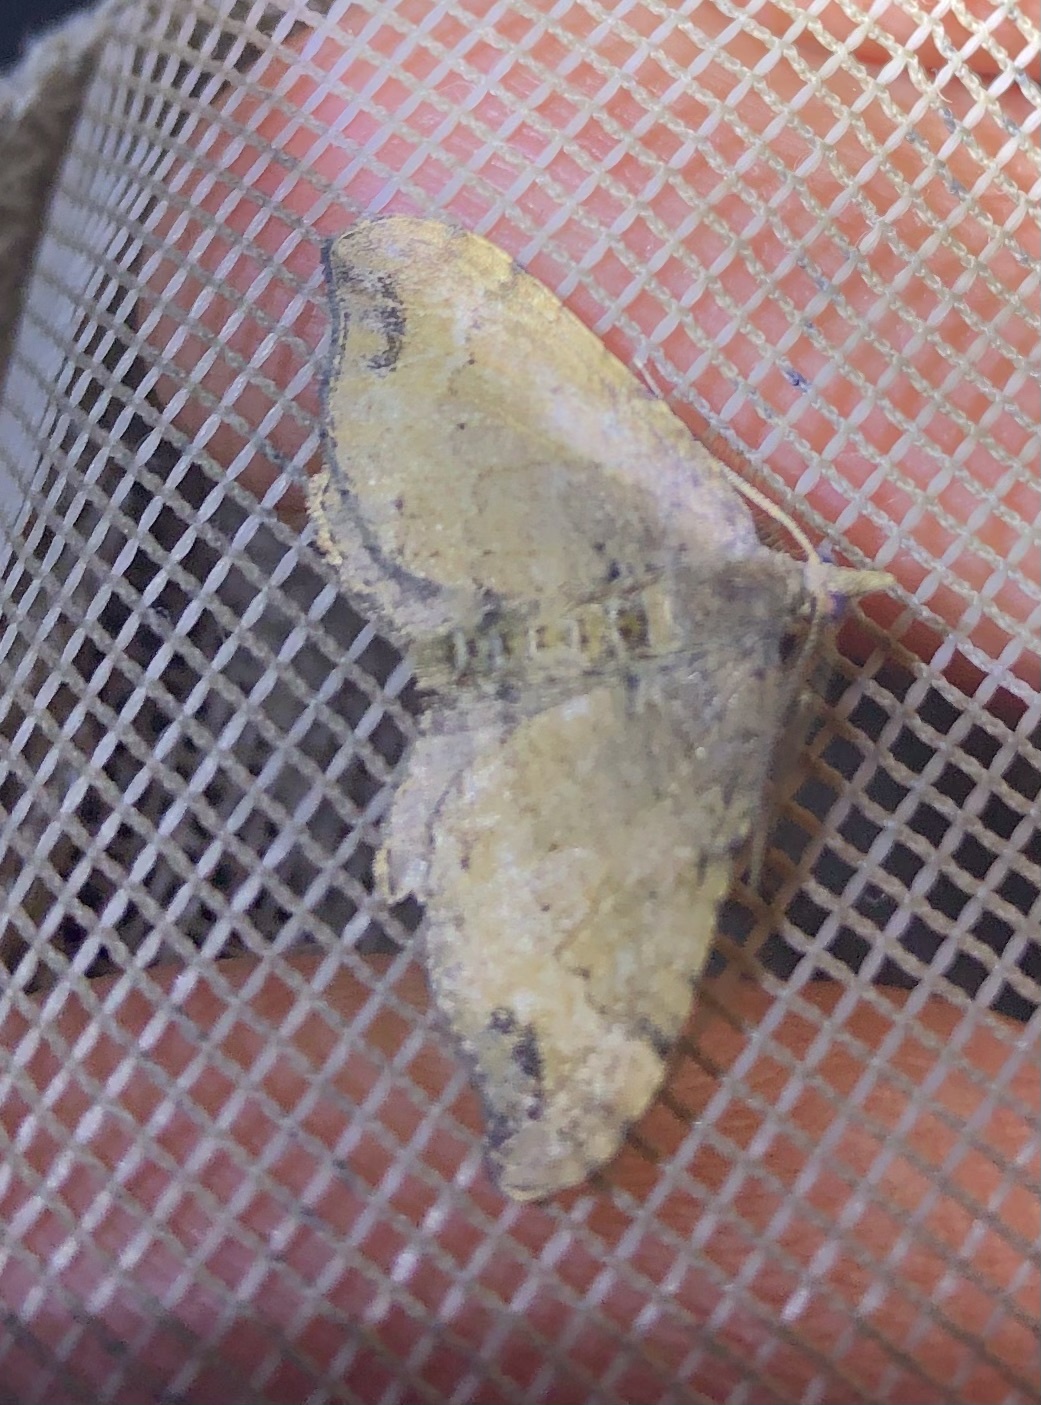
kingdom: Animalia
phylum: Arthropoda
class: Insecta
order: Lepidoptera
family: Geometridae
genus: Homodotis
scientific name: Homodotis megaspilata
